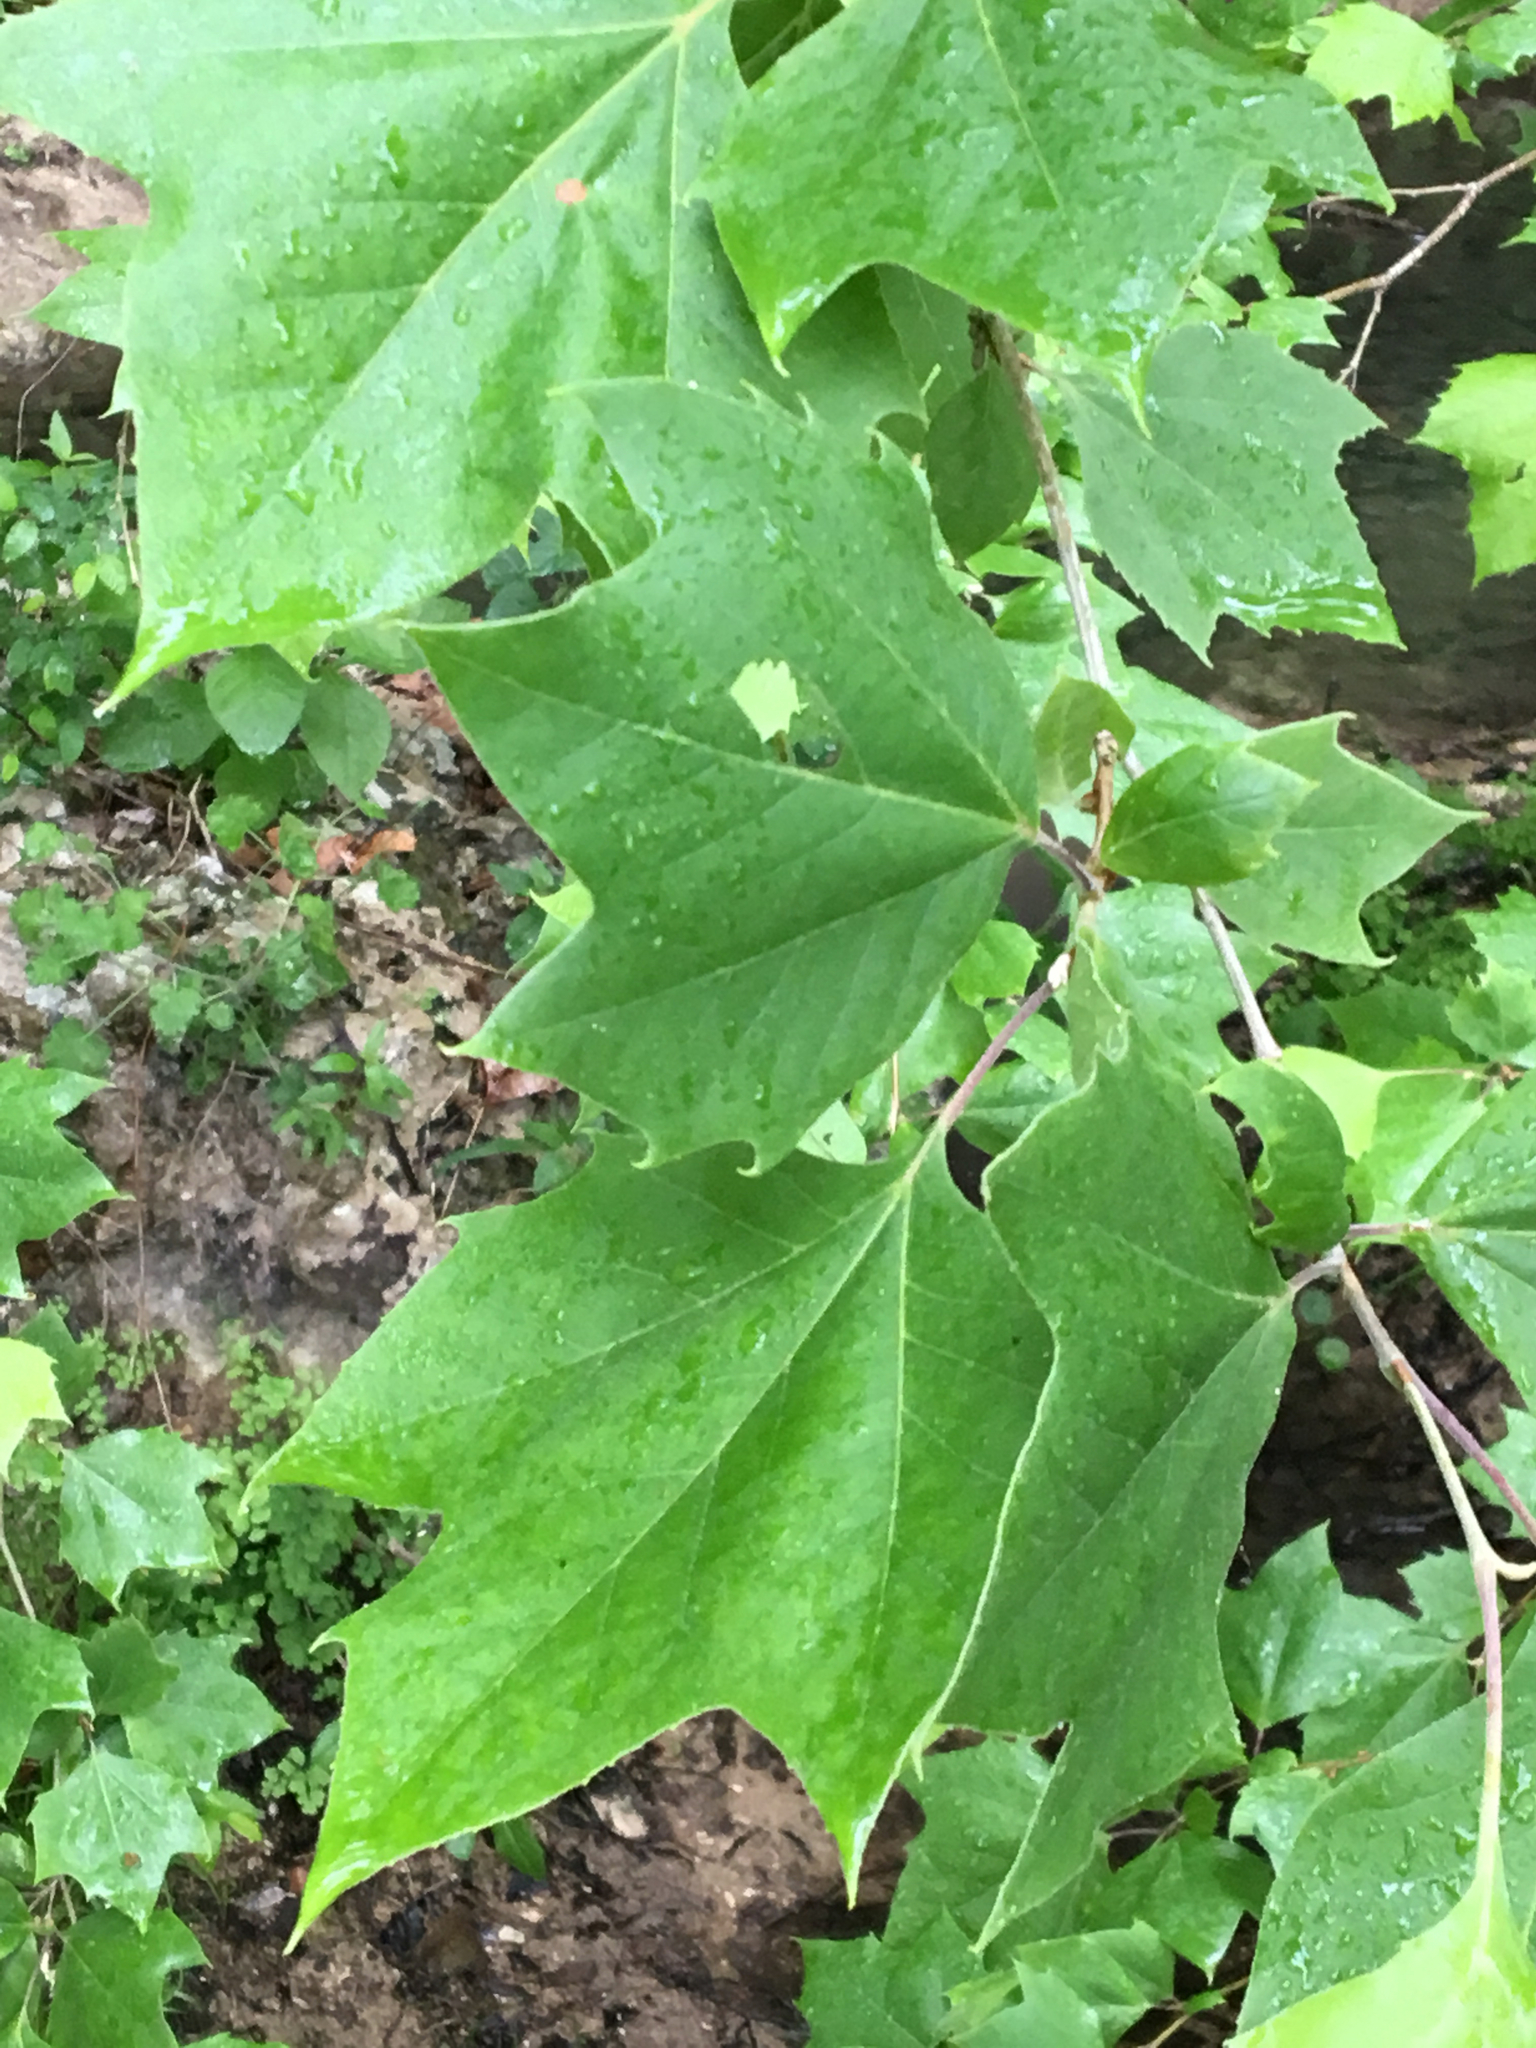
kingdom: Plantae
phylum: Tracheophyta
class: Magnoliopsida
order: Proteales
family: Platanaceae
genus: Platanus
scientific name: Platanus occidentalis
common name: American sycamore
